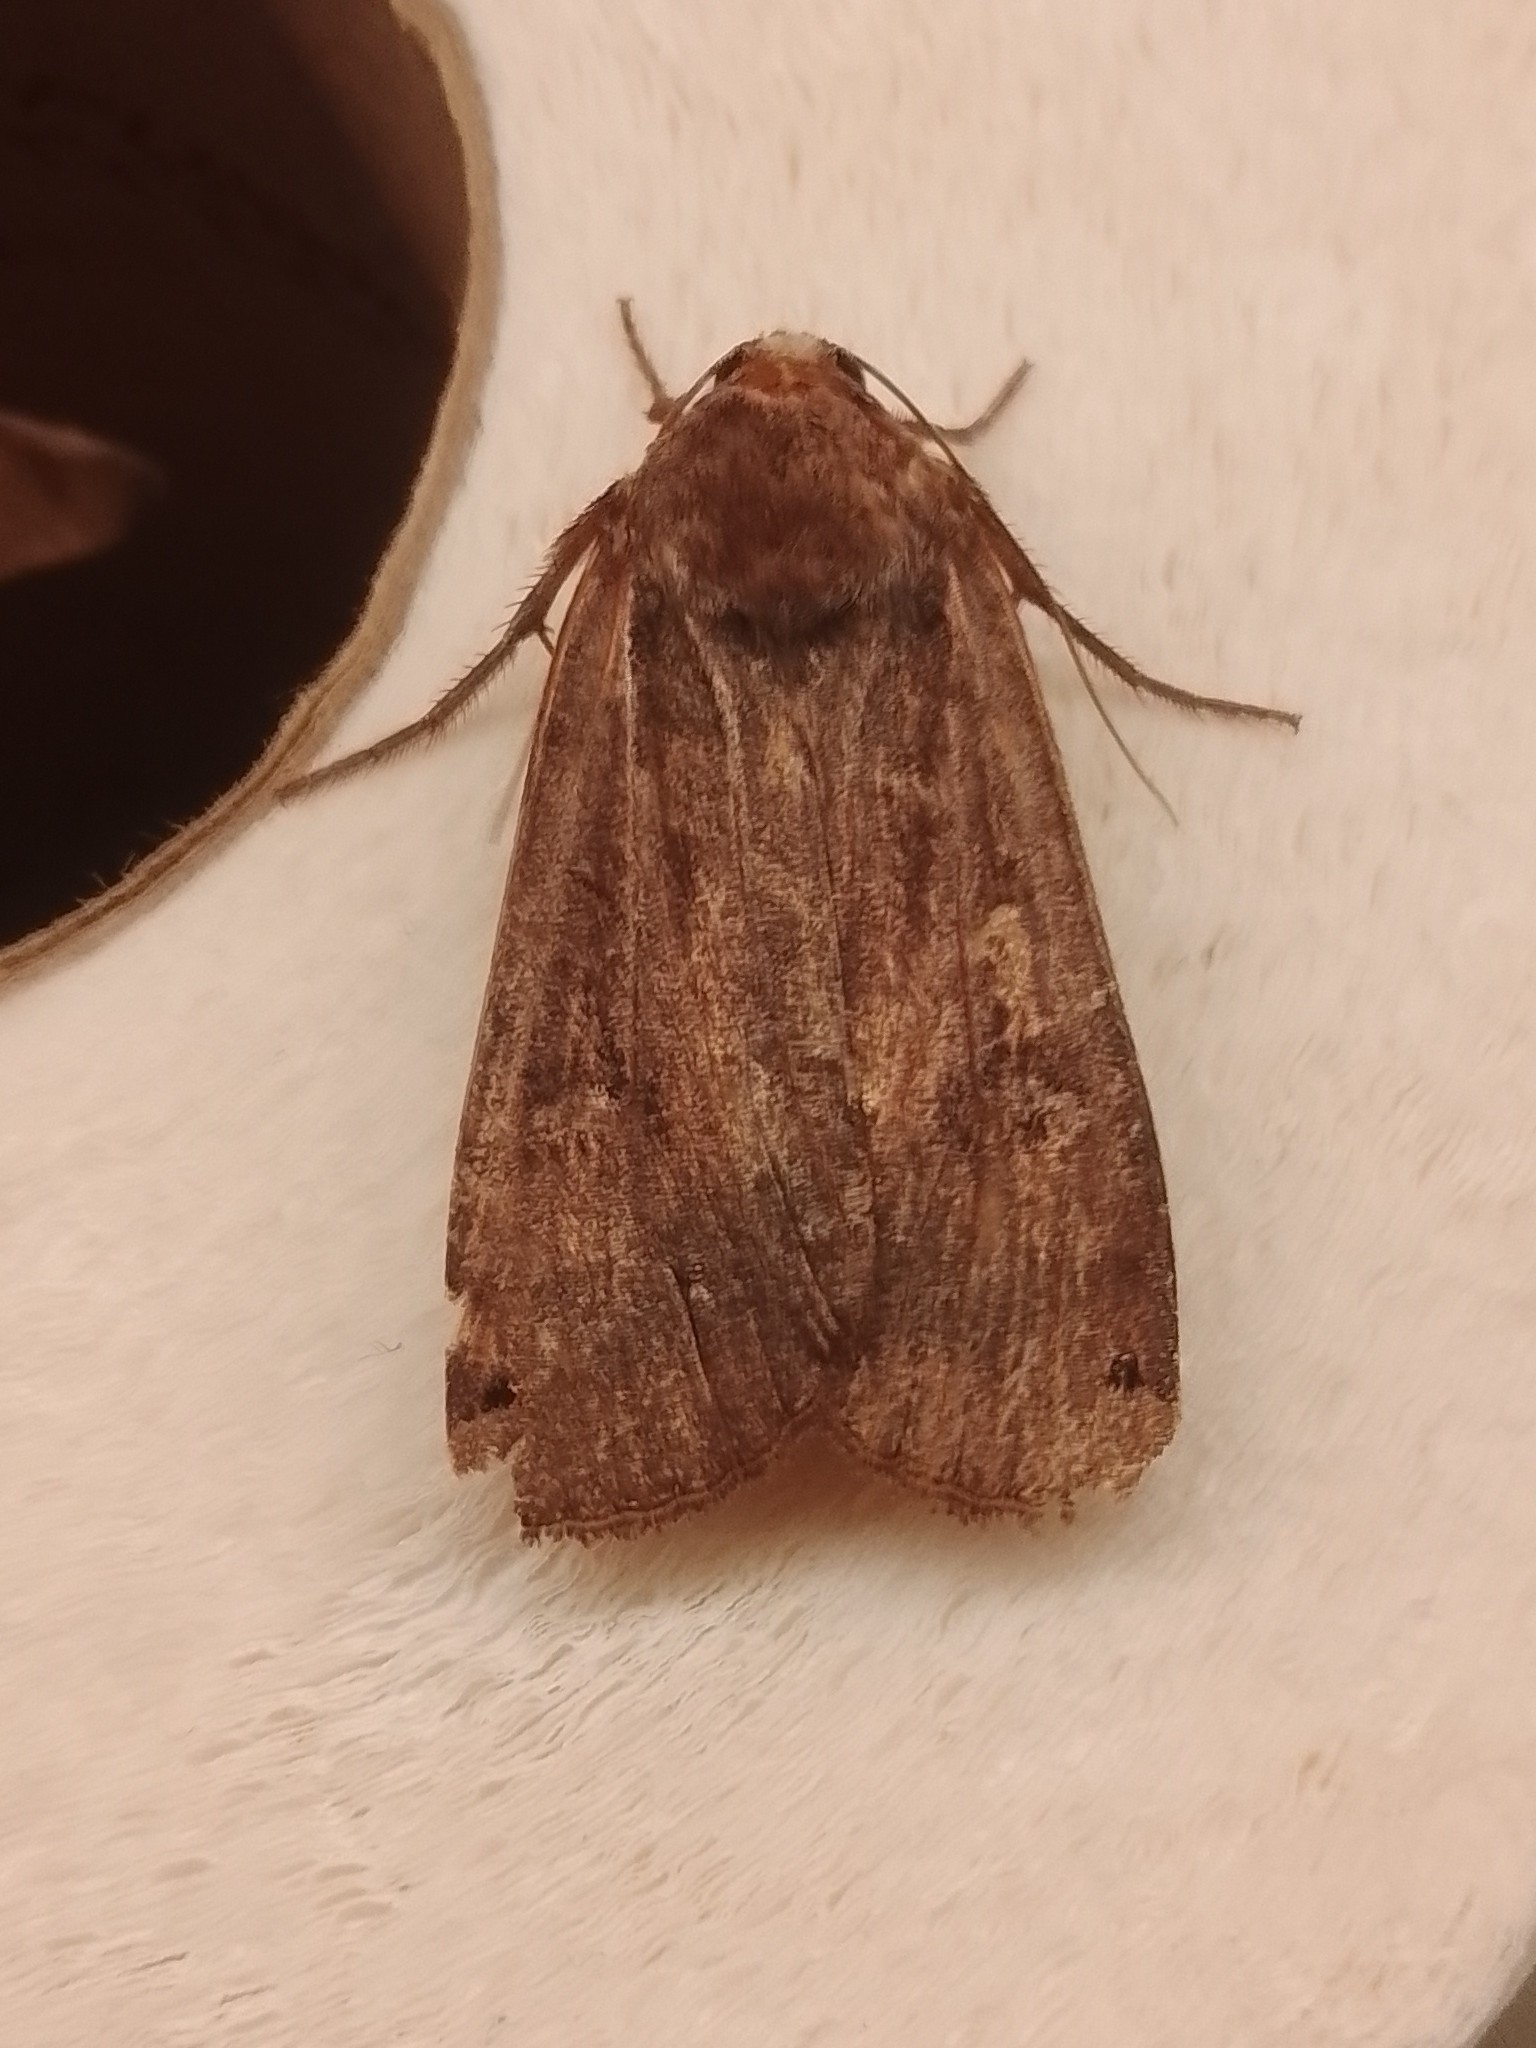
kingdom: Animalia
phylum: Arthropoda
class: Insecta
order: Lepidoptera
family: Noctuidae
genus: Noctua
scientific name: Noctua pronuba
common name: Large yellow underwing
